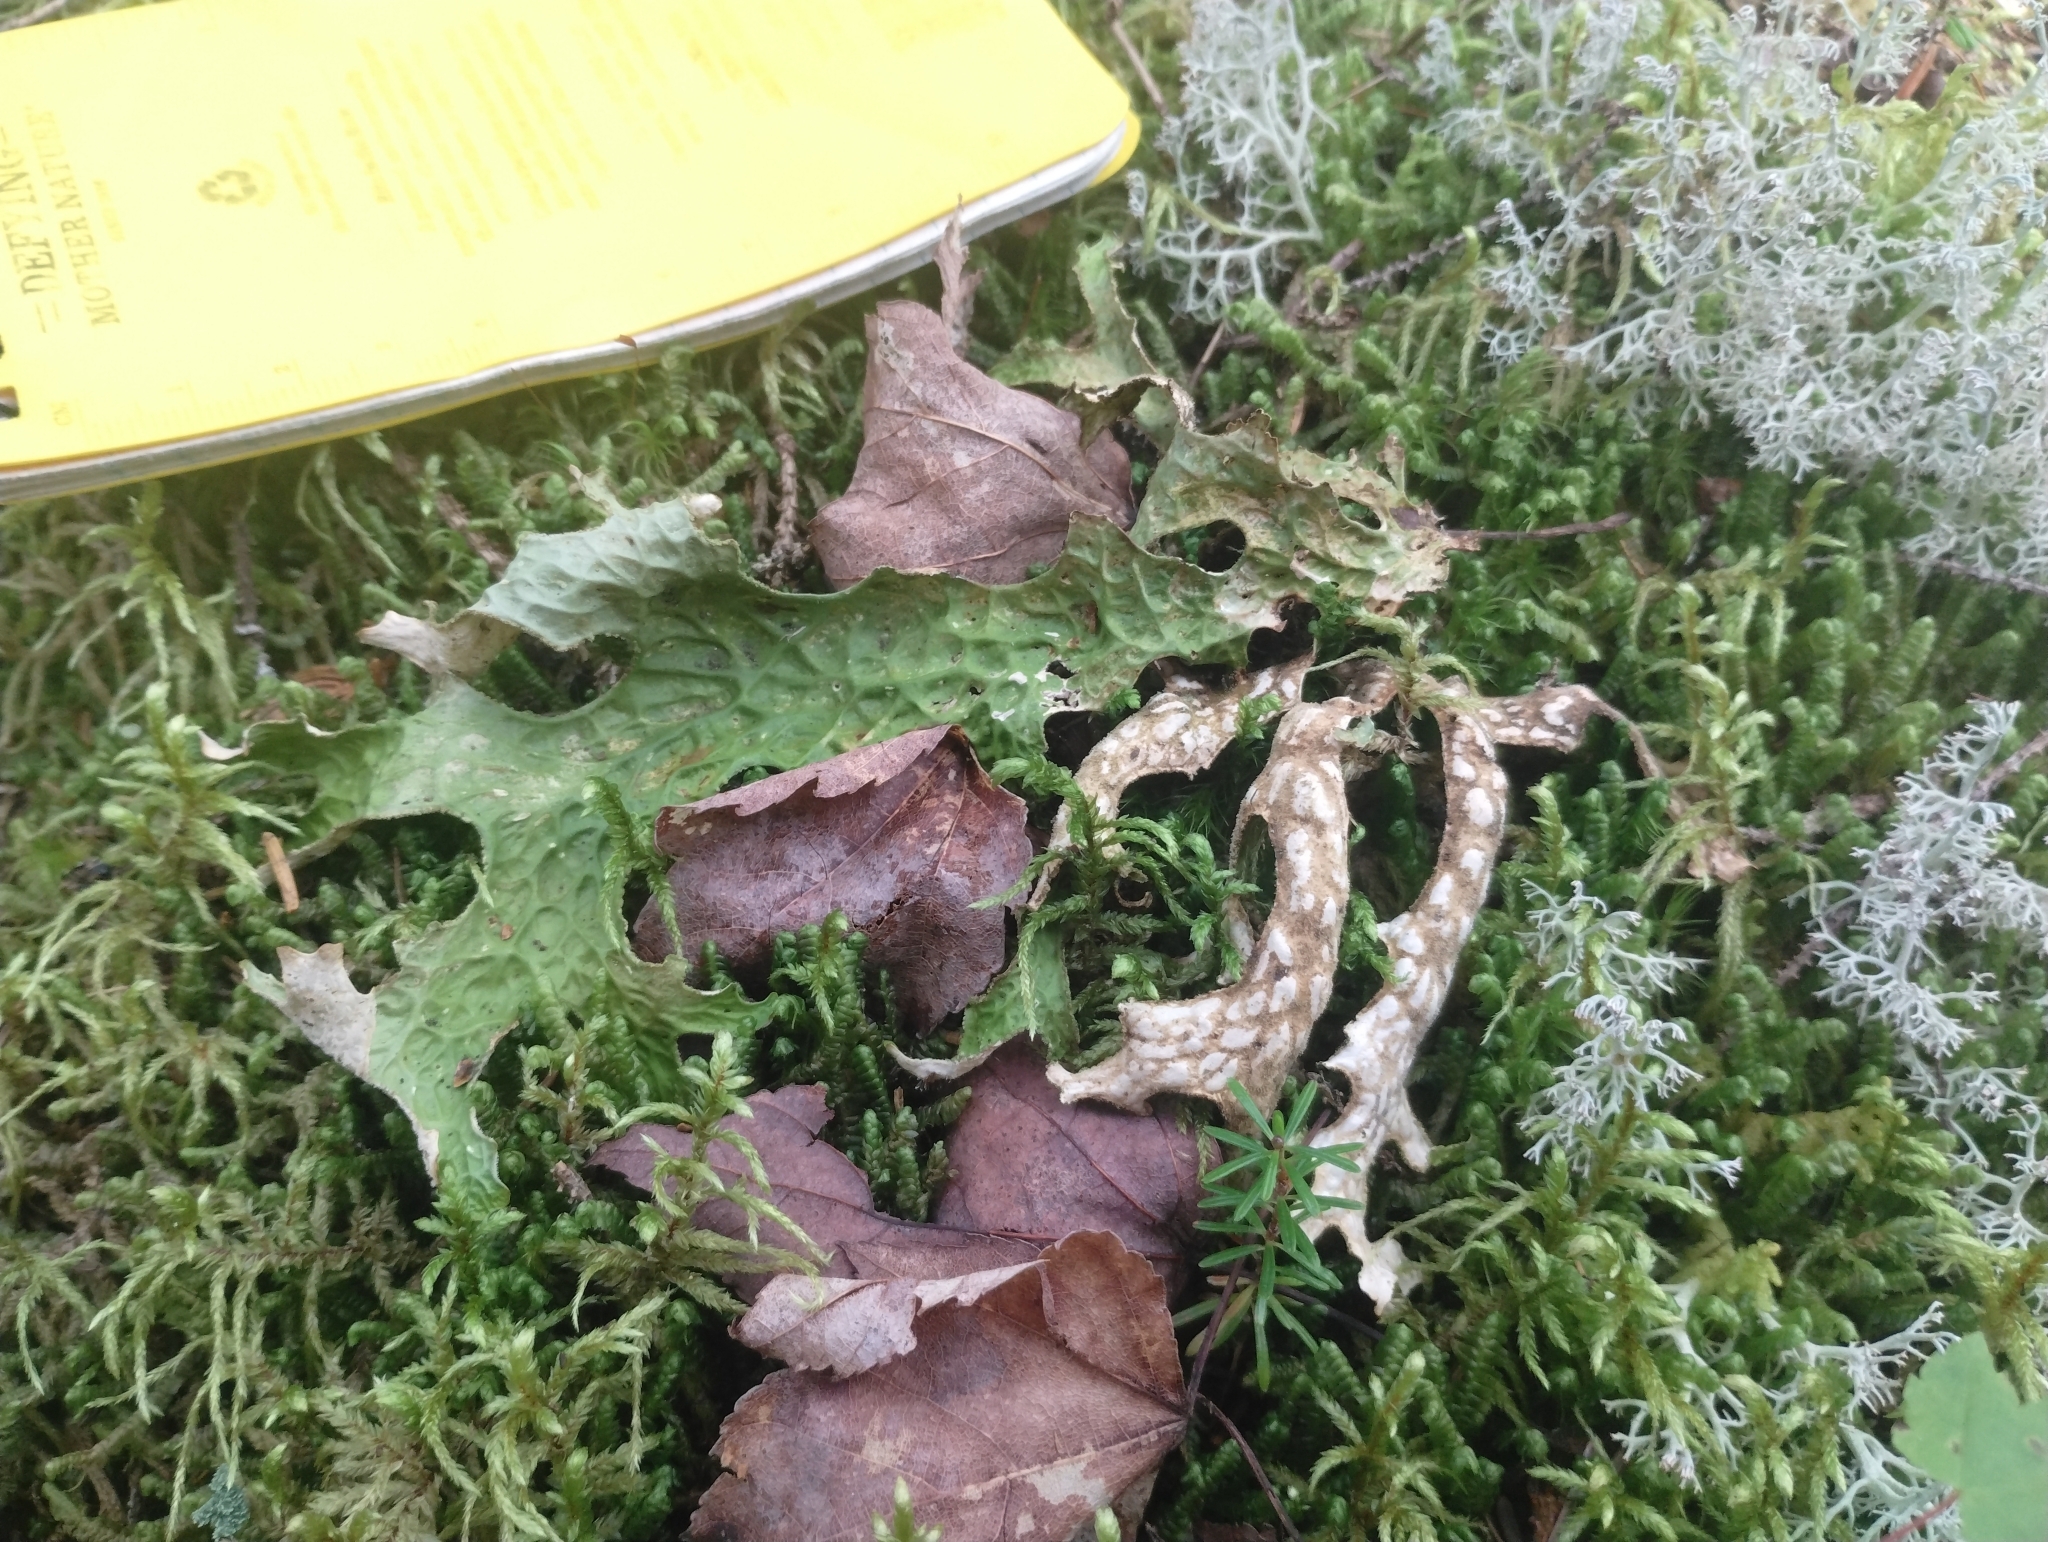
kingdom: Fungi
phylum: Ascomycota
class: Lecanoromycetes
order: Peltigerales
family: Lobariaceae
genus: Lobaria
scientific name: Lobaria pulmonaria
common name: Lungwort
